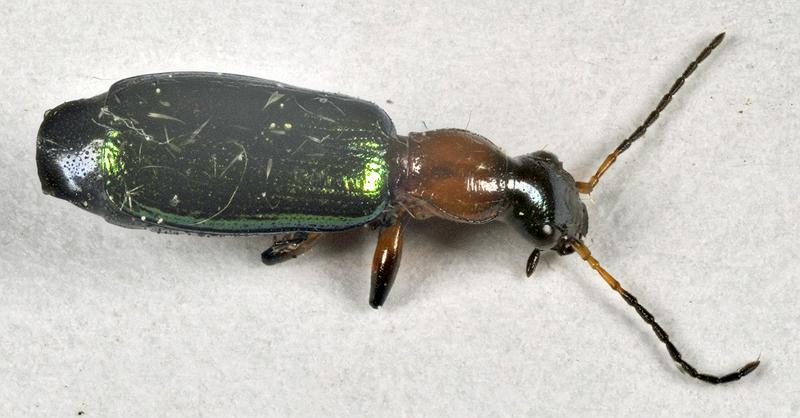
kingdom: Animalia
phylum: Arthropoda
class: Insecta
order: Coleoptera
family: Carabidae
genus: Calleida
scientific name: Calleida punctata
